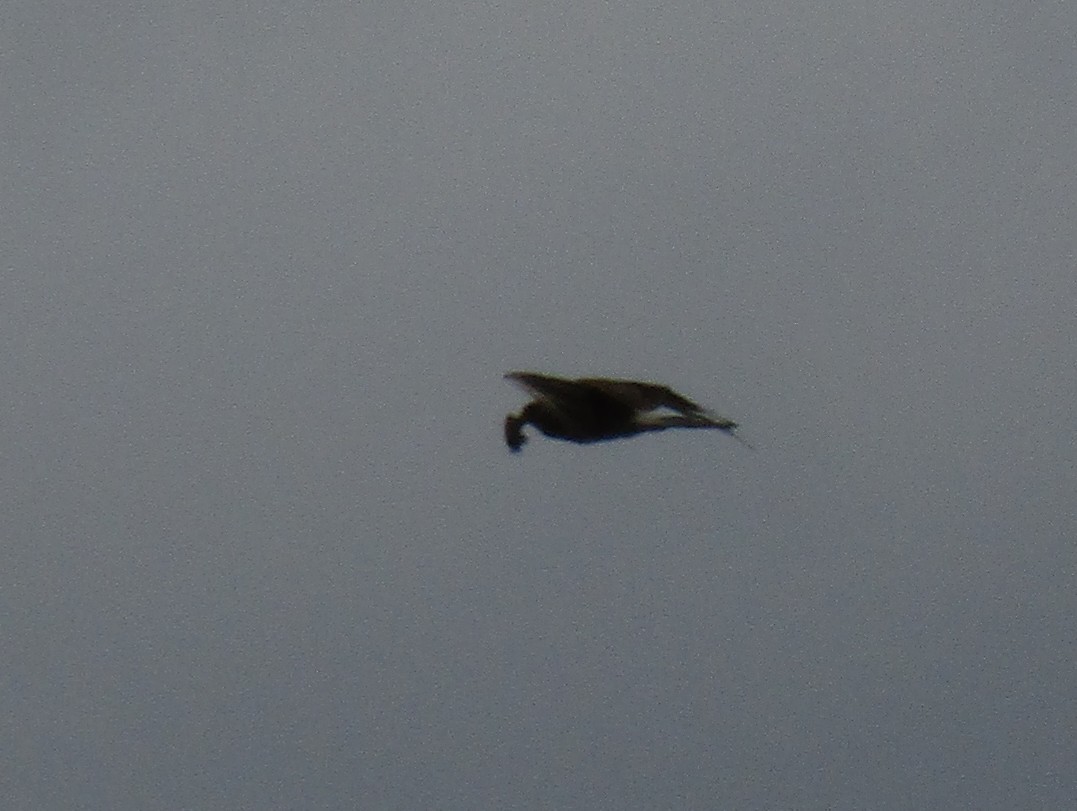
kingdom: Animalia
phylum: Chordata
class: Aves
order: Falconiformes
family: Falconidae
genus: Daptrius
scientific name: Daptrius
